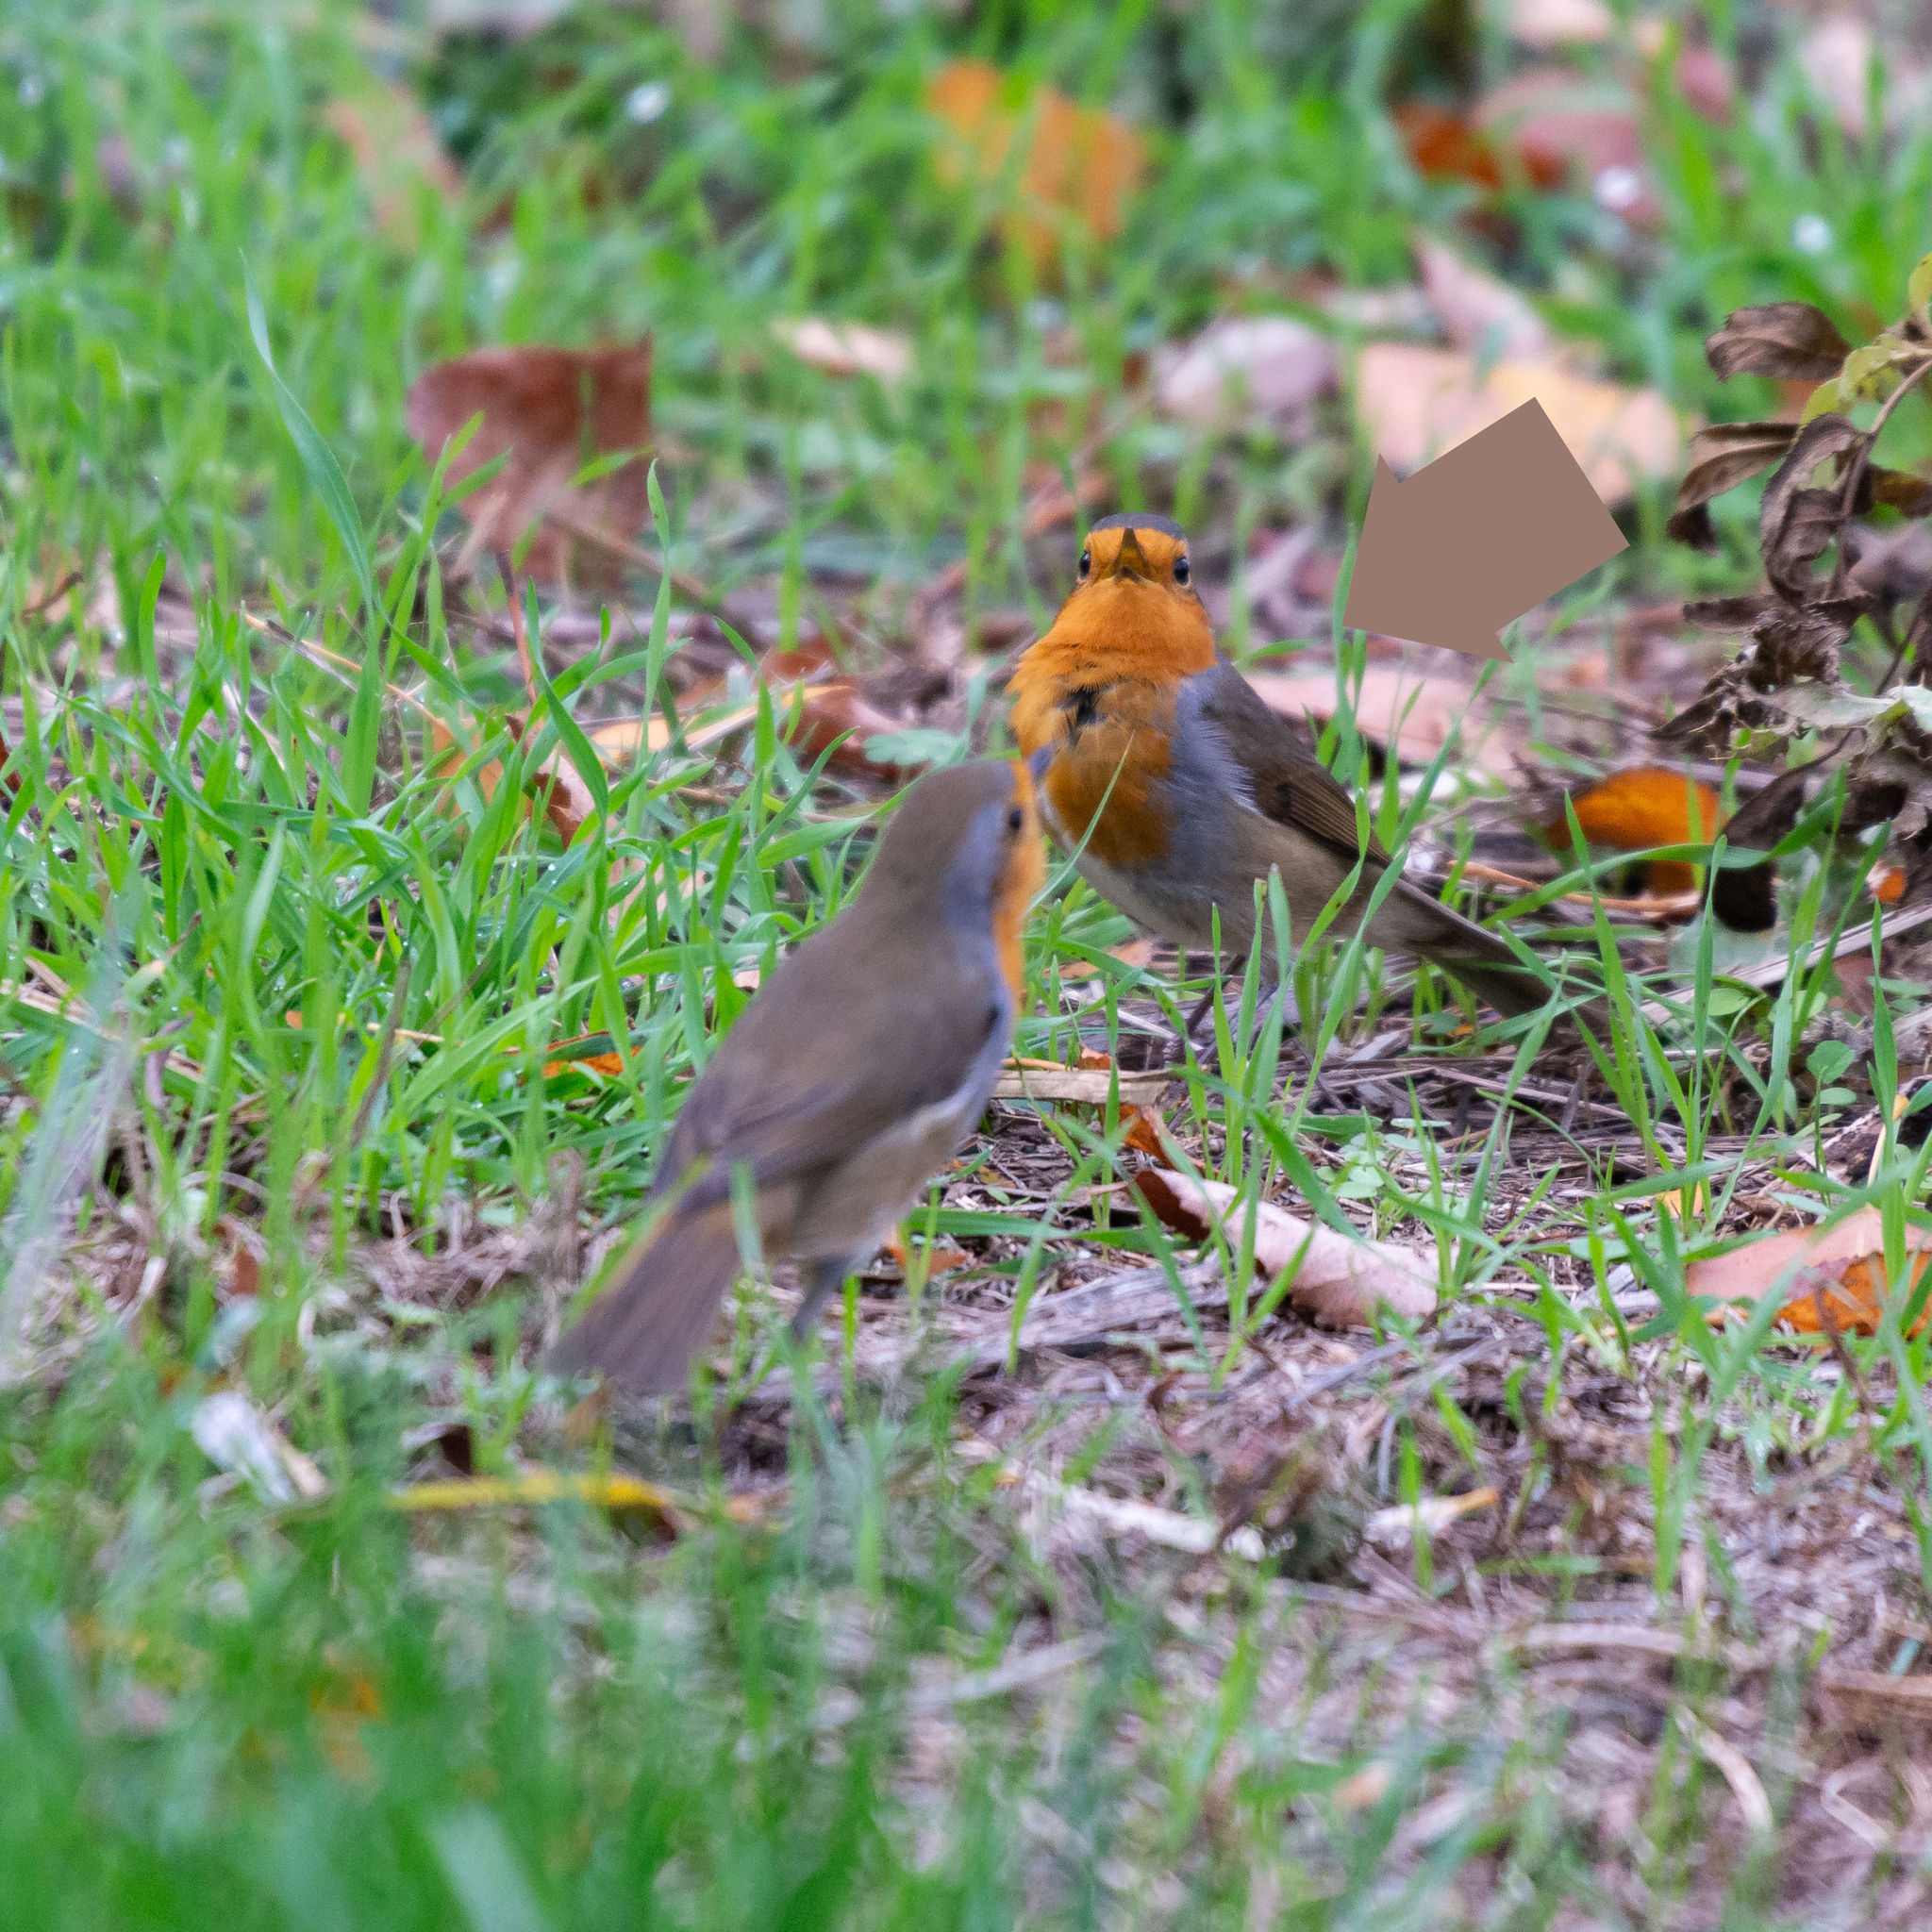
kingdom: Animalia
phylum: Chordata
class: Aves
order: Passeriformes
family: Muscicapidae
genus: Erithacus
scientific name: Erithacus rubecula
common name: European robin
